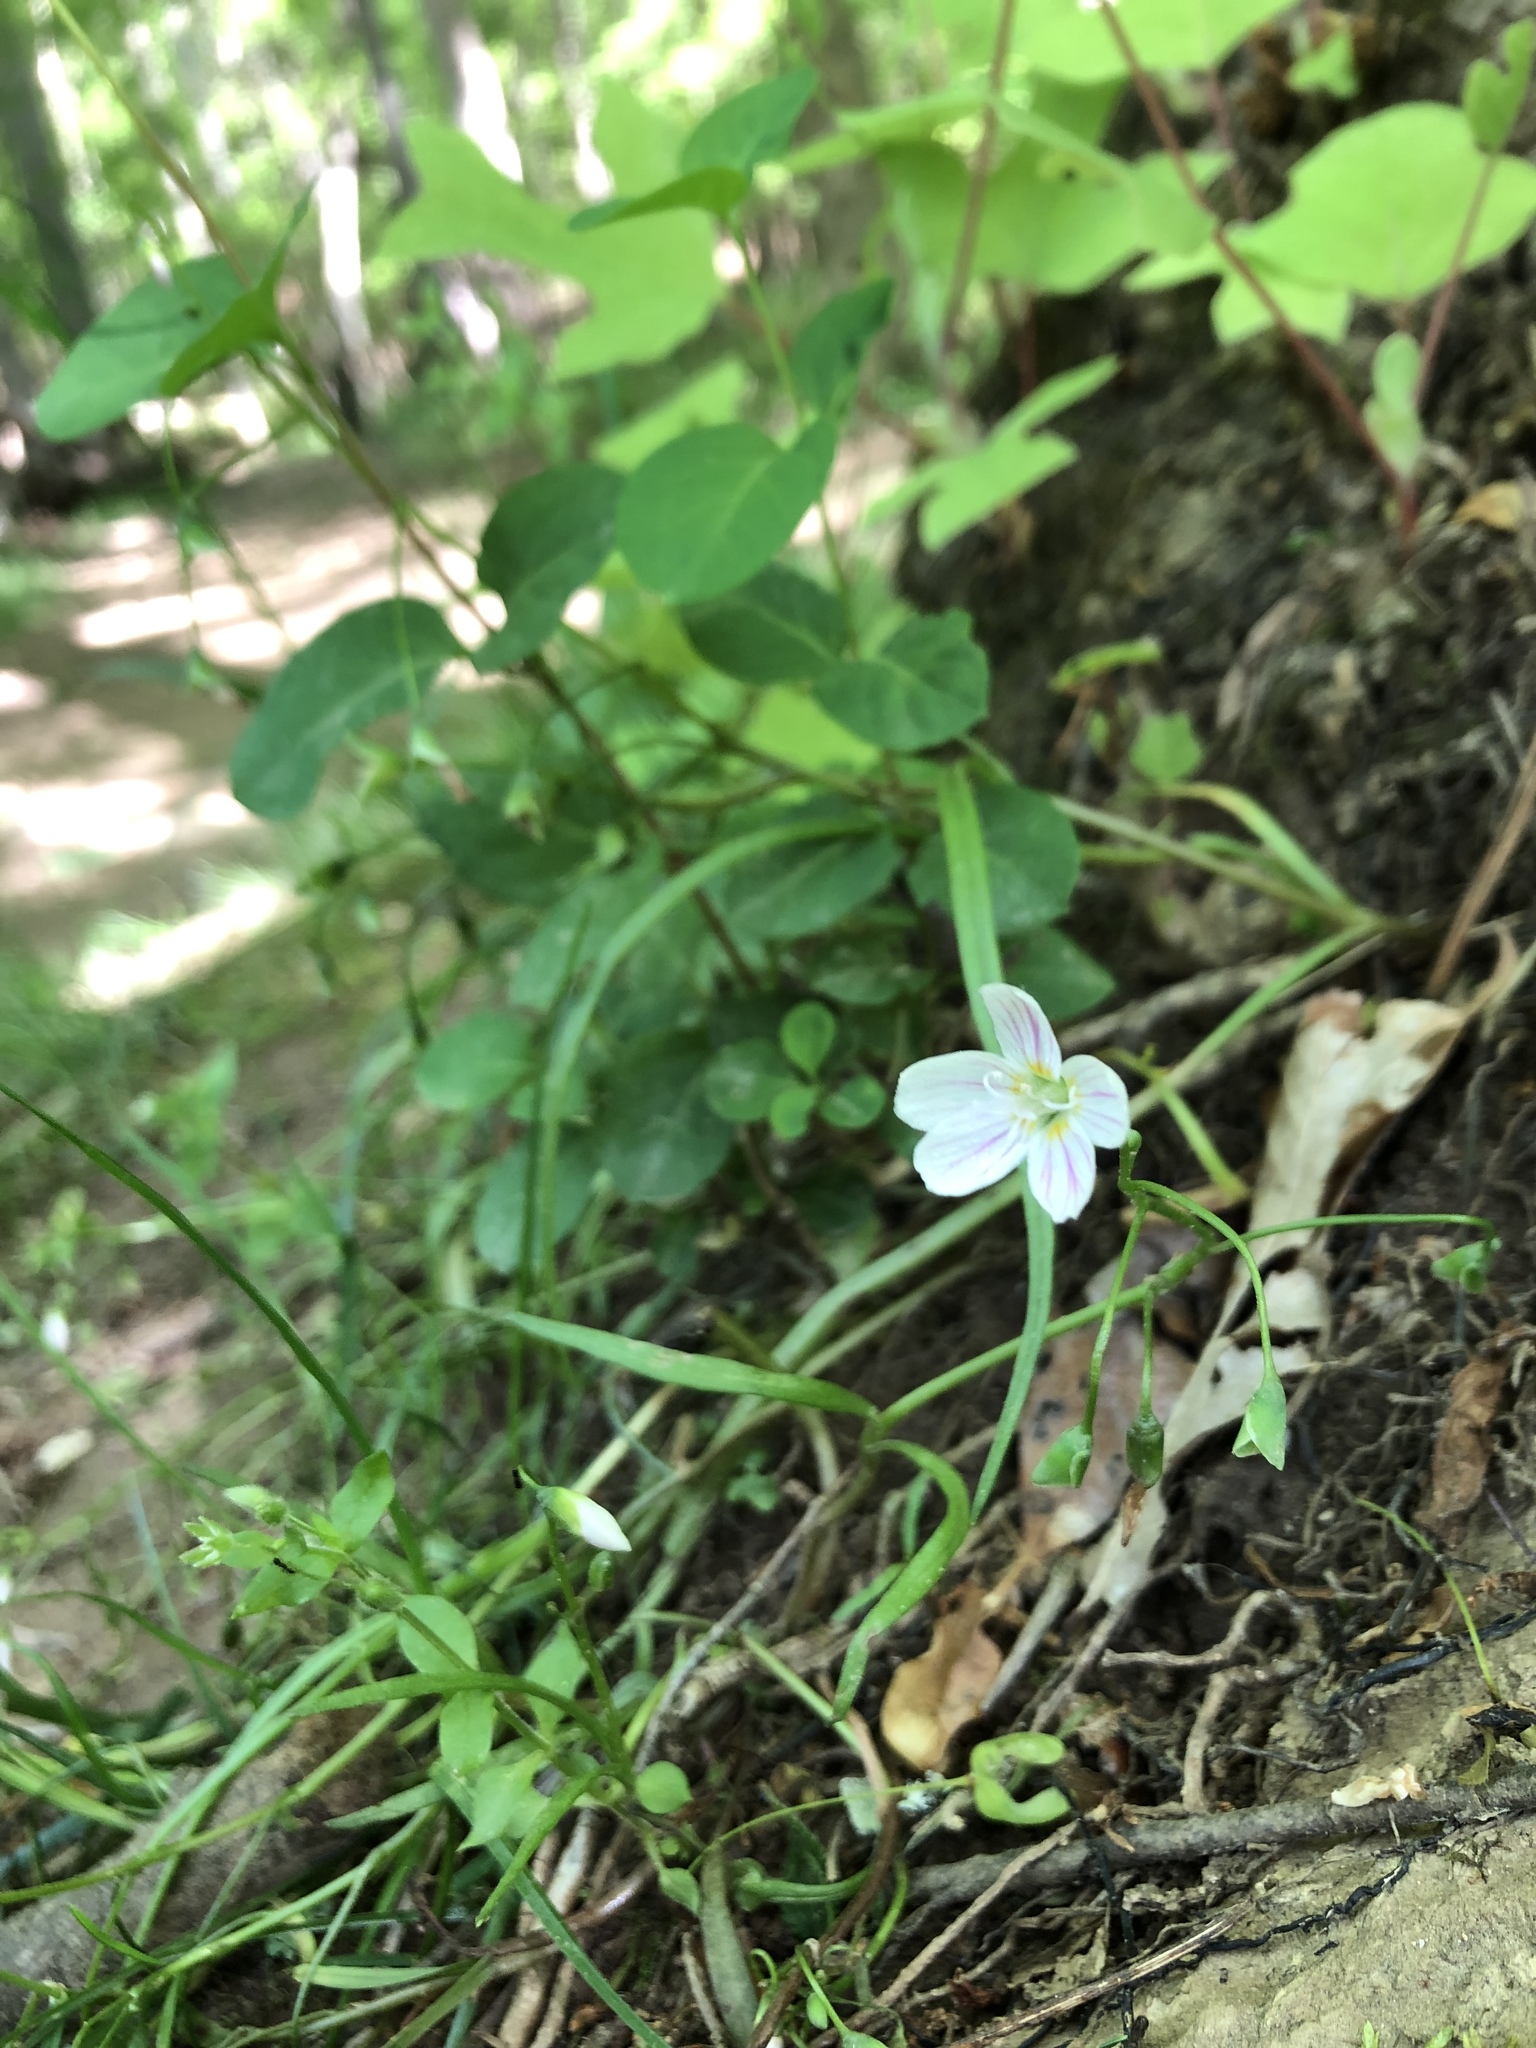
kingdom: Plantae
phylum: Tracheophyta
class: Magnoliopsida
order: Caryophyllales
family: Montiaceae
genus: Claytonia
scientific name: Claytonia virginica
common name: Virginia springbeauty
